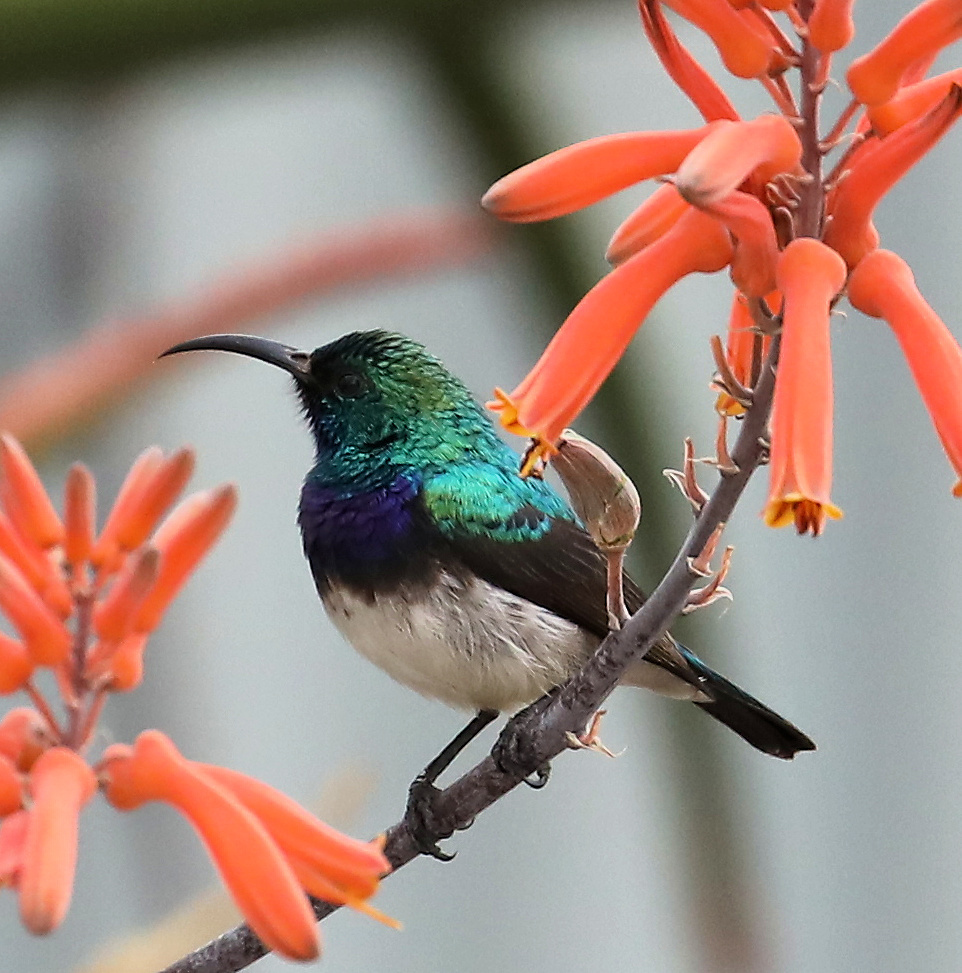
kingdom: Animalia
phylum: Chordata
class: Aves
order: Passeriformes
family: Nectariniidae
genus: Cinnyris
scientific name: Cinnyris talatala
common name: White-bellied sunbird
